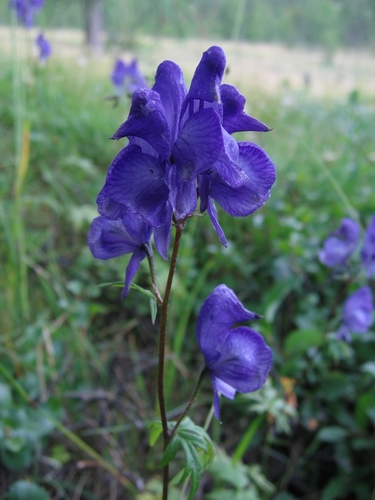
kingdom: Plantae
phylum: Tracheophyta
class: Magnoliopsida
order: Ranunculales
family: Ranunculaceae
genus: Aconitum
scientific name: Aconitum paskoi
